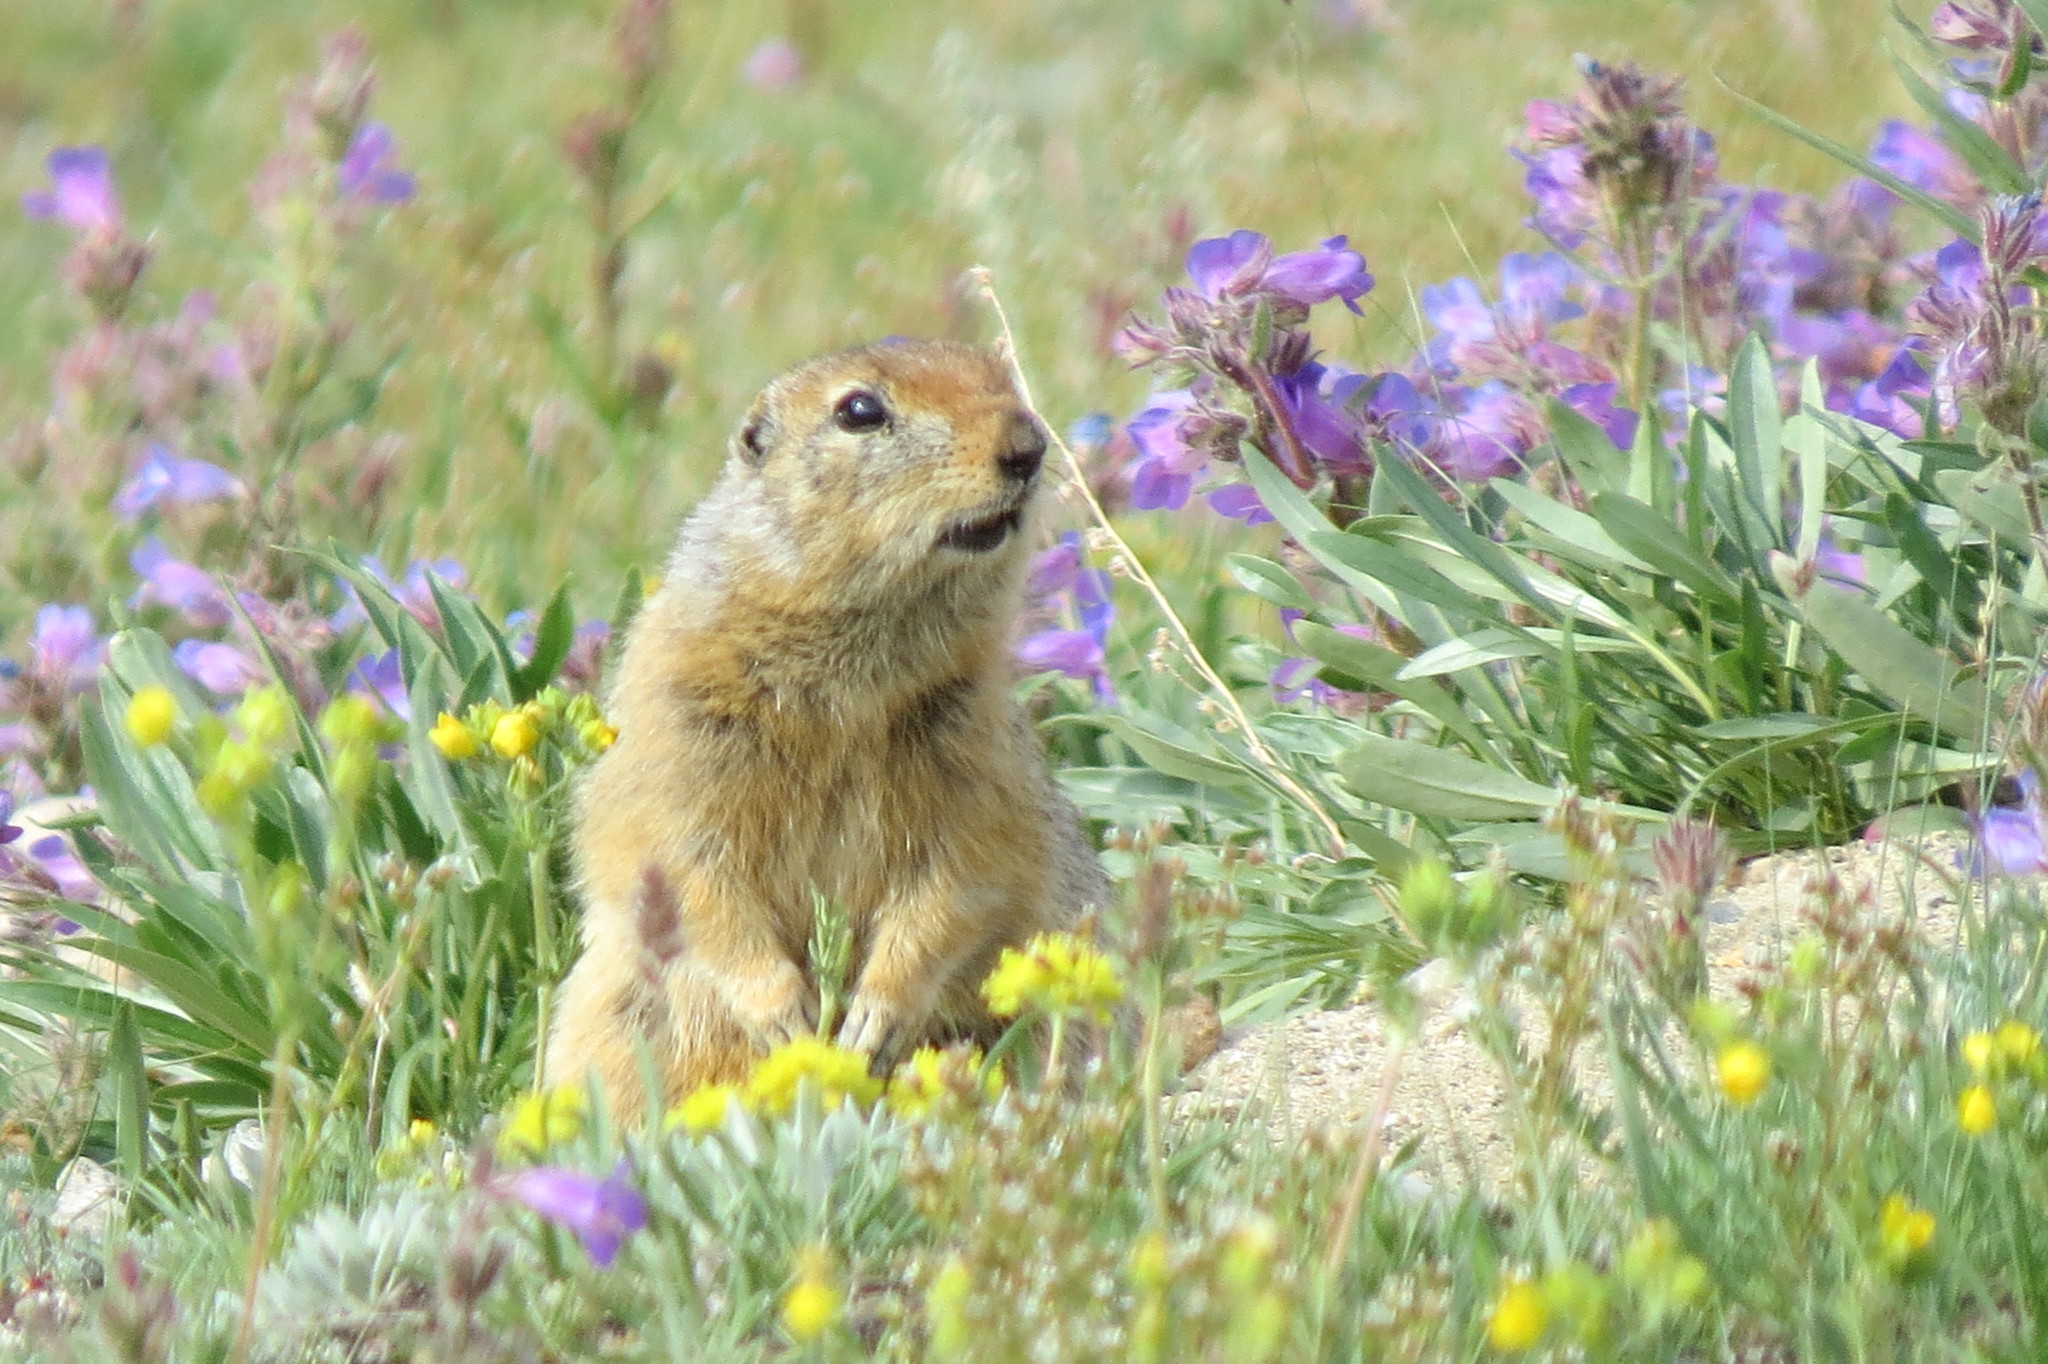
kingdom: Animalia
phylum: Chordata
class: Mammalia
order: Rodentia
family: Sciuridae
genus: Urocitellus
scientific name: Urocitellus parryii
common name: Arctic ground squirrel
